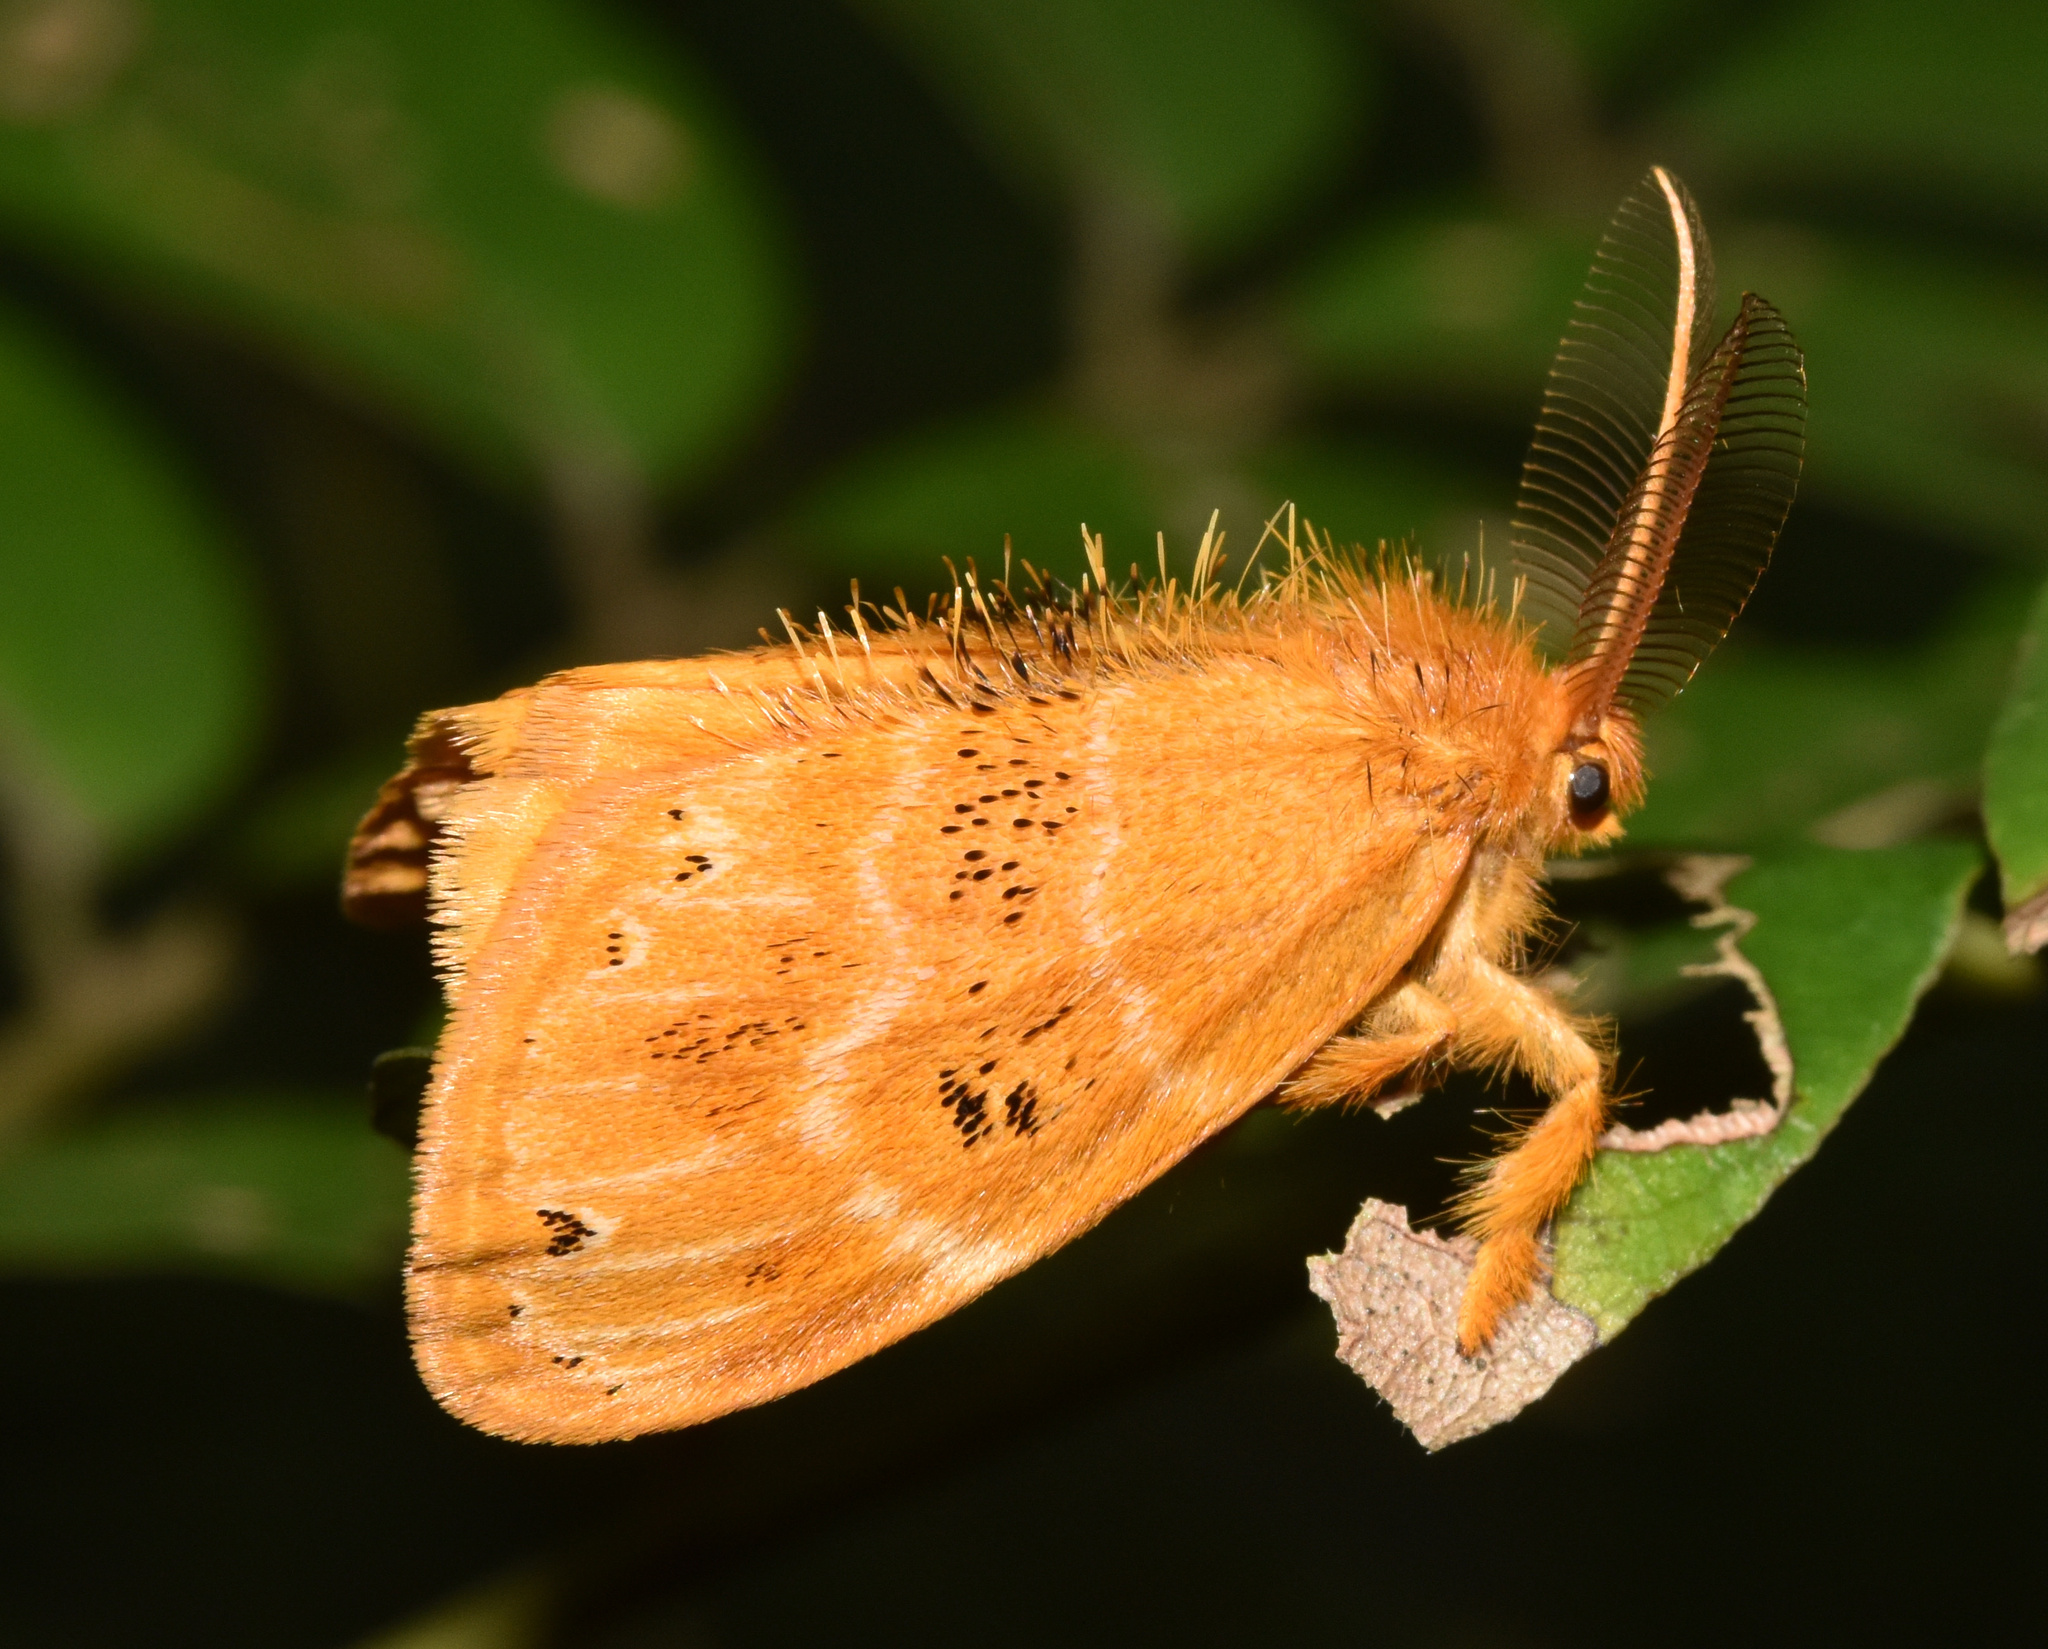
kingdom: Animalia
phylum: Arthropoda
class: Insecta
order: Lepidoptera
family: Erebidae
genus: Euproctis
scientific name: Euproctis punctifera
